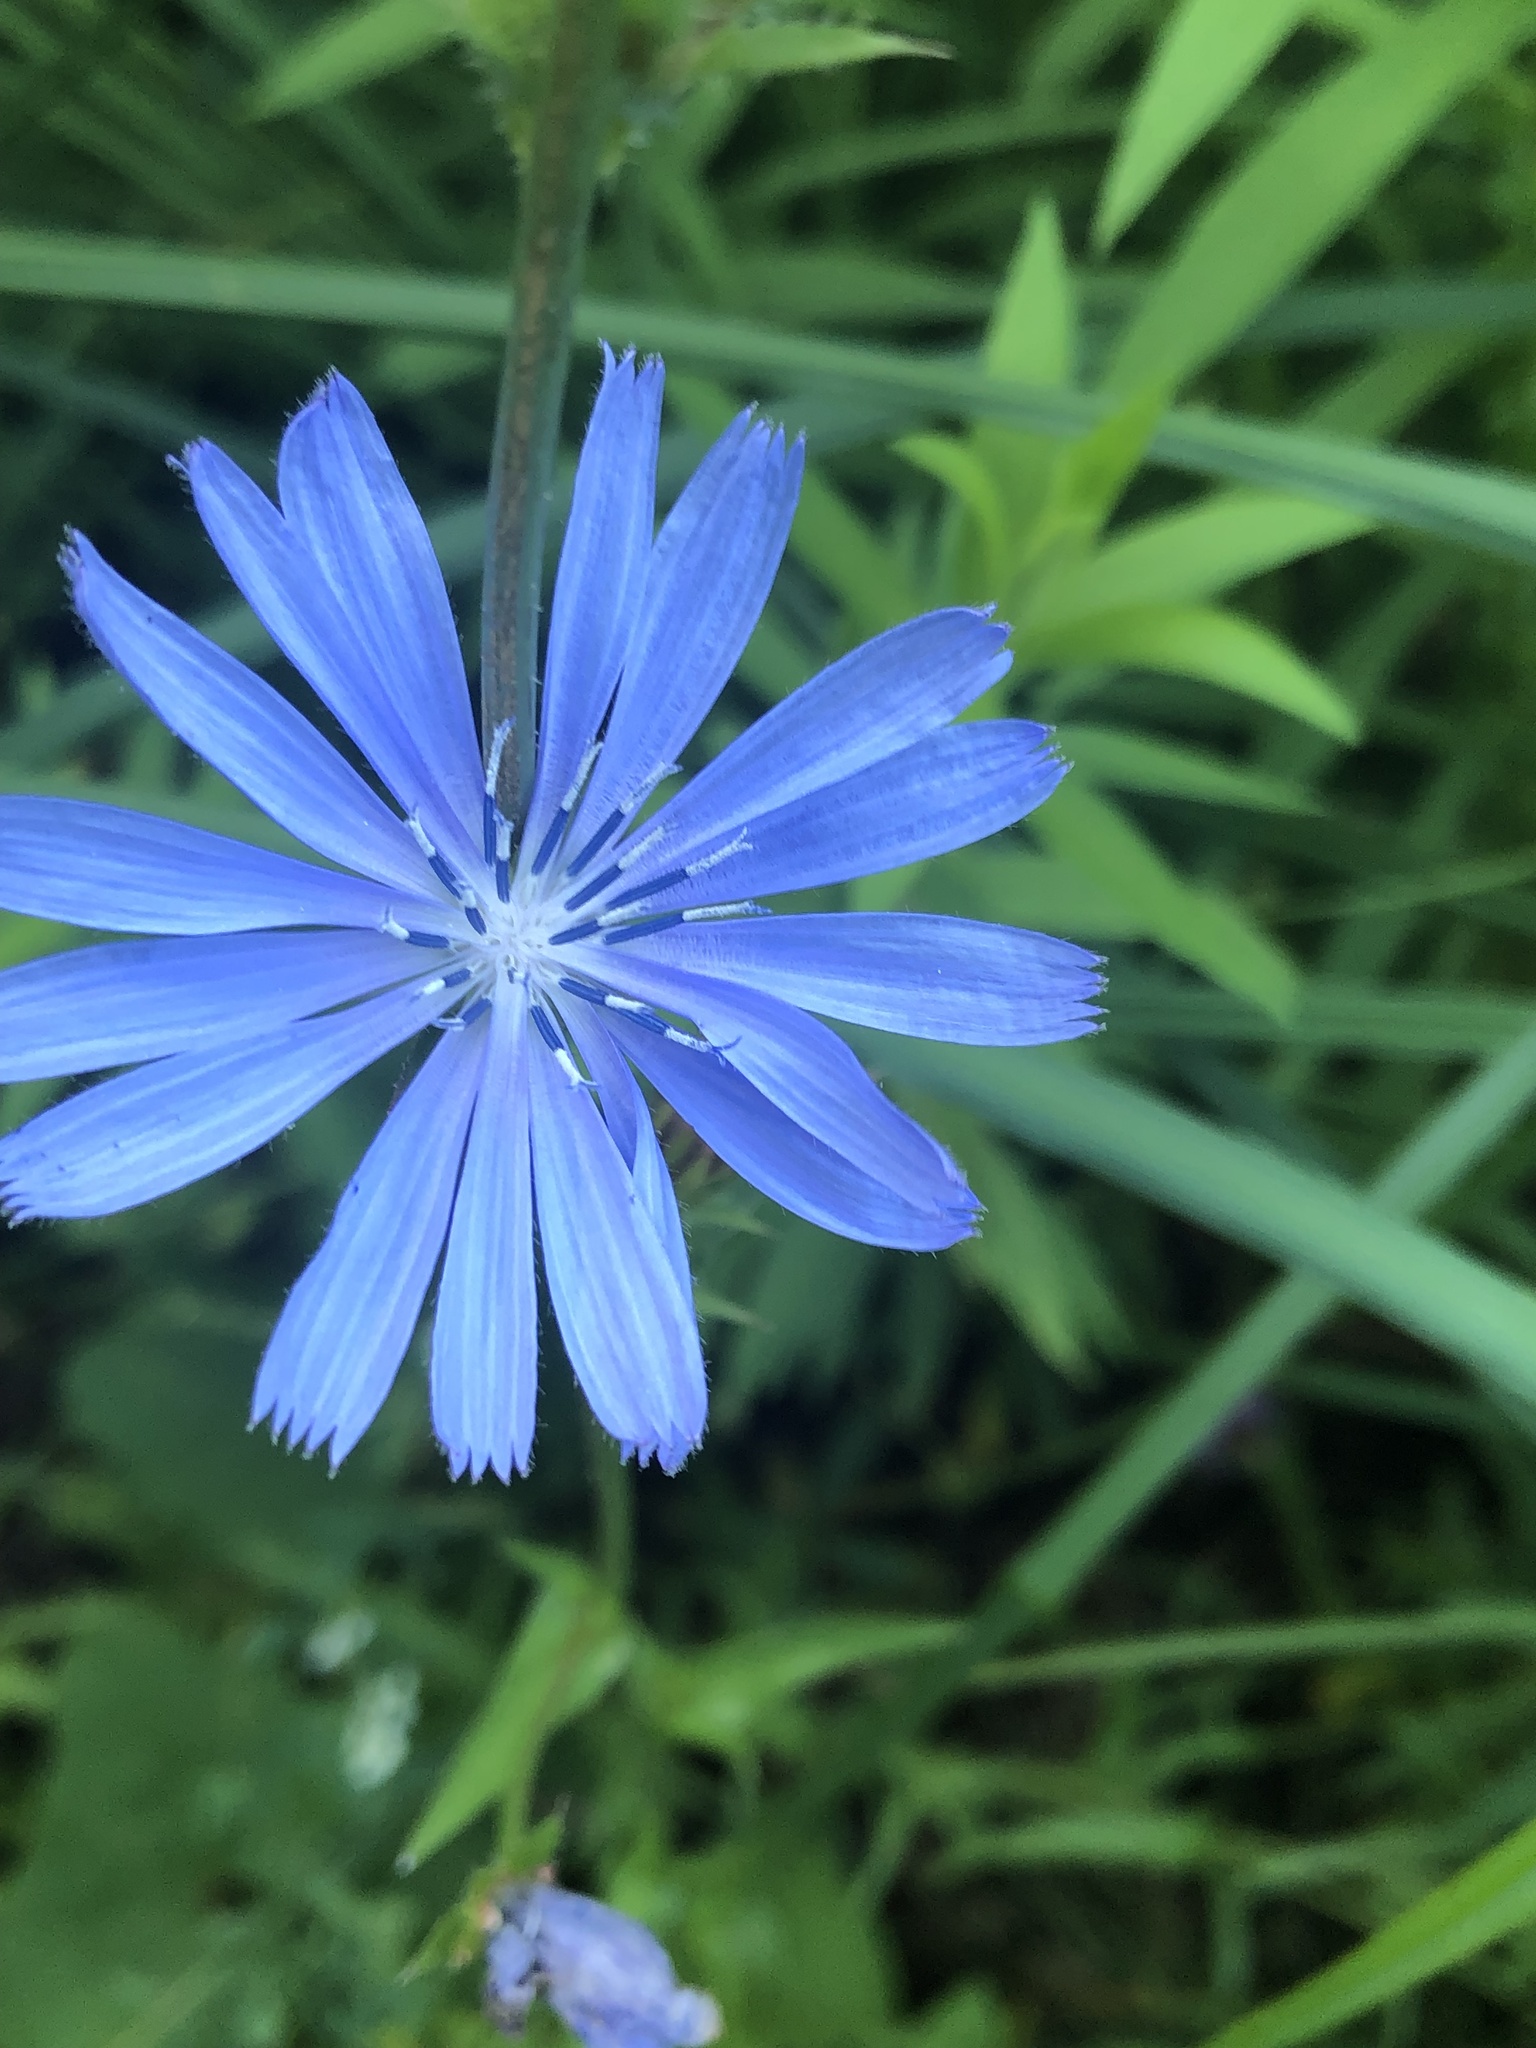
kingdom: Plantae
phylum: Tracheophyta
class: Magnoliopsida
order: Asterales
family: Asteraceae
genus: Cichorium
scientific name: Cichorium intybus
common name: Chicory
